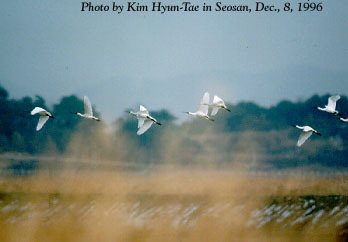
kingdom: Animalia
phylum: Chordata
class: Aves
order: Pelecaniformes
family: Threskiornithidae
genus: Platalea
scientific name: Platalea leucorodia
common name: Eurasian spoonbill
